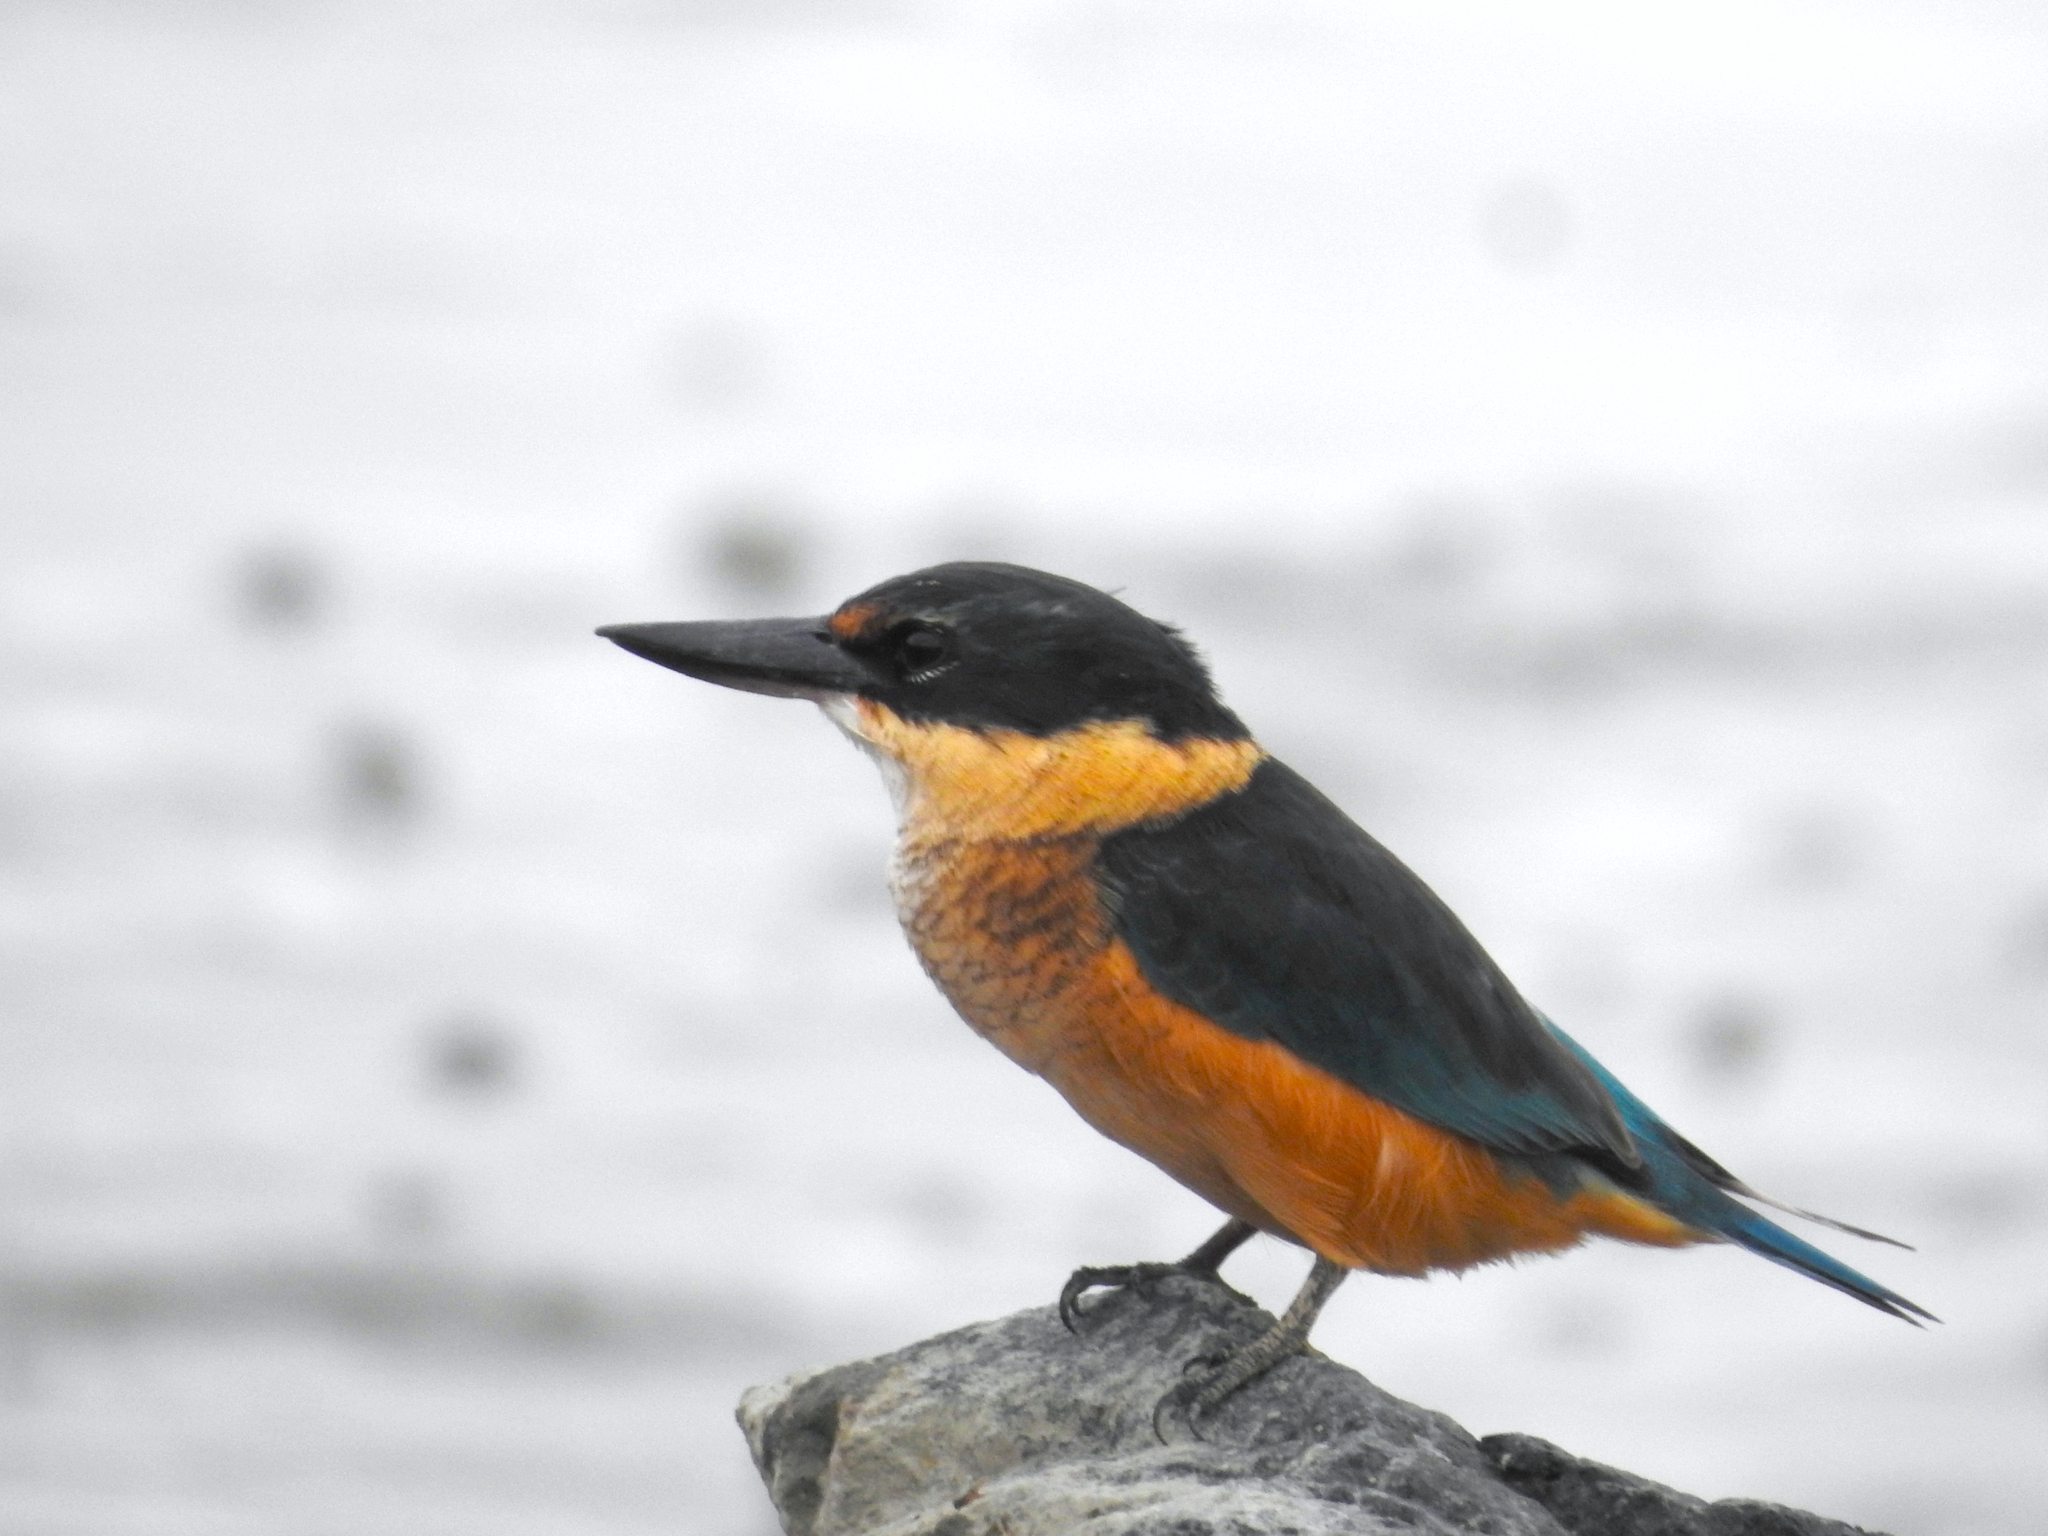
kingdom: Animalia
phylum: Chordata
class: Aves
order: Coraciiformes
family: Alcedinidae
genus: Todiramphus
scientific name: Todiramphus sanctus
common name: Sacred kingfisher
